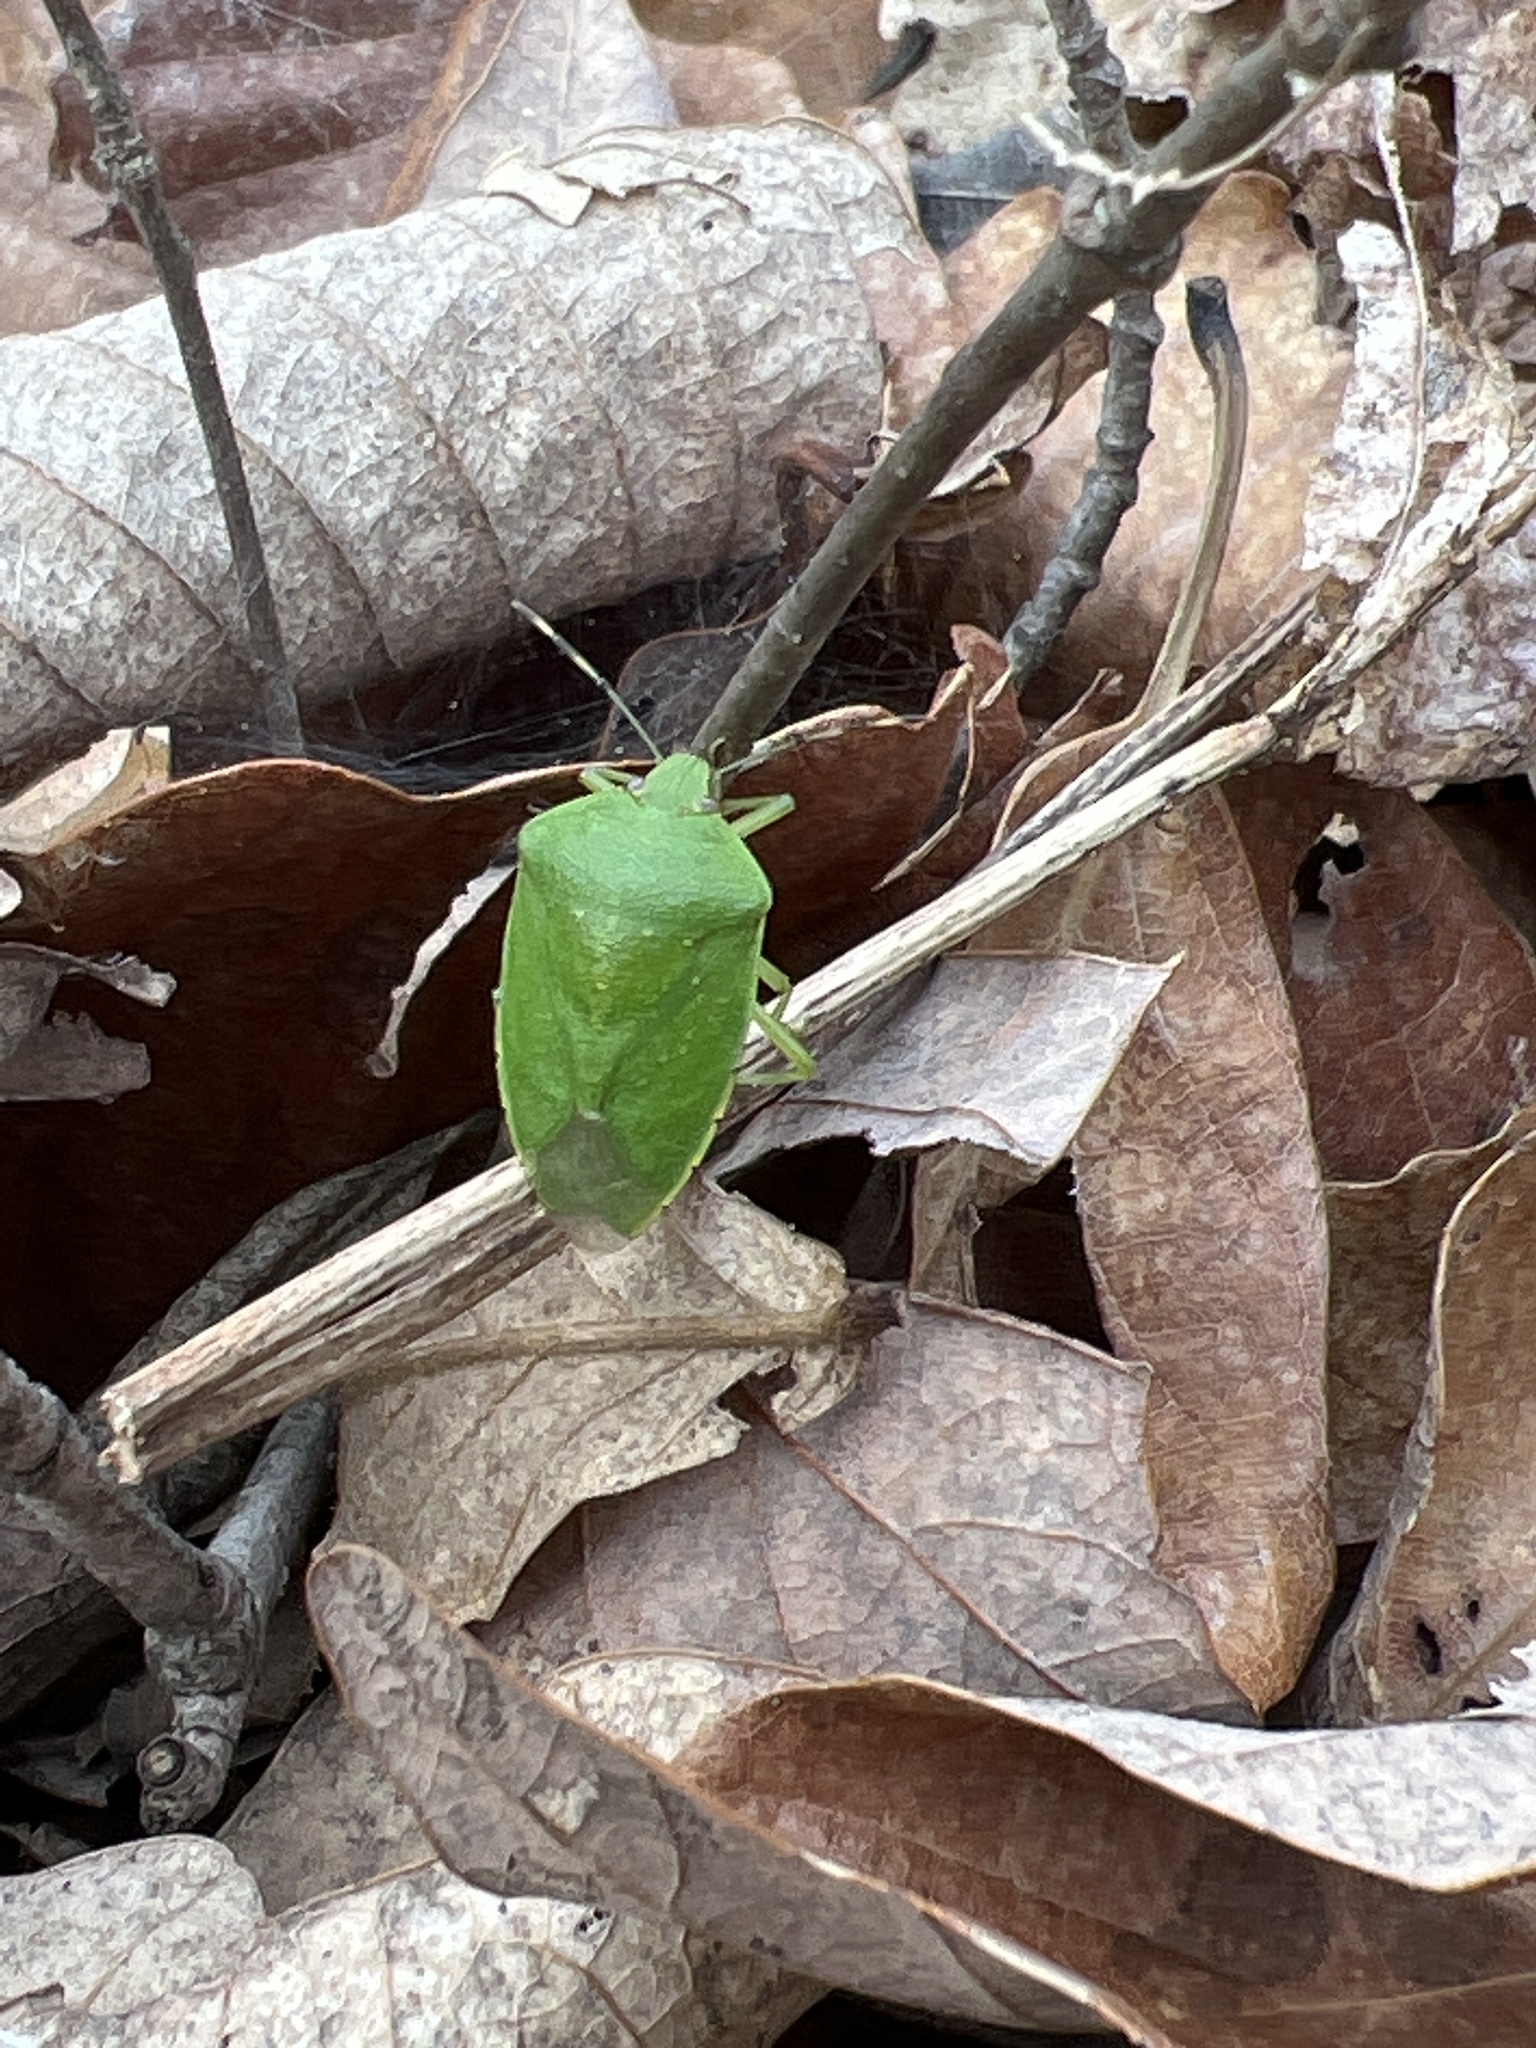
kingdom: Animalia
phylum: Arthropoda
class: Insecta
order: Hemiptera
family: Pentatomidae
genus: Chinavia
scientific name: Chinavia hilaris
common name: Green stink bug
